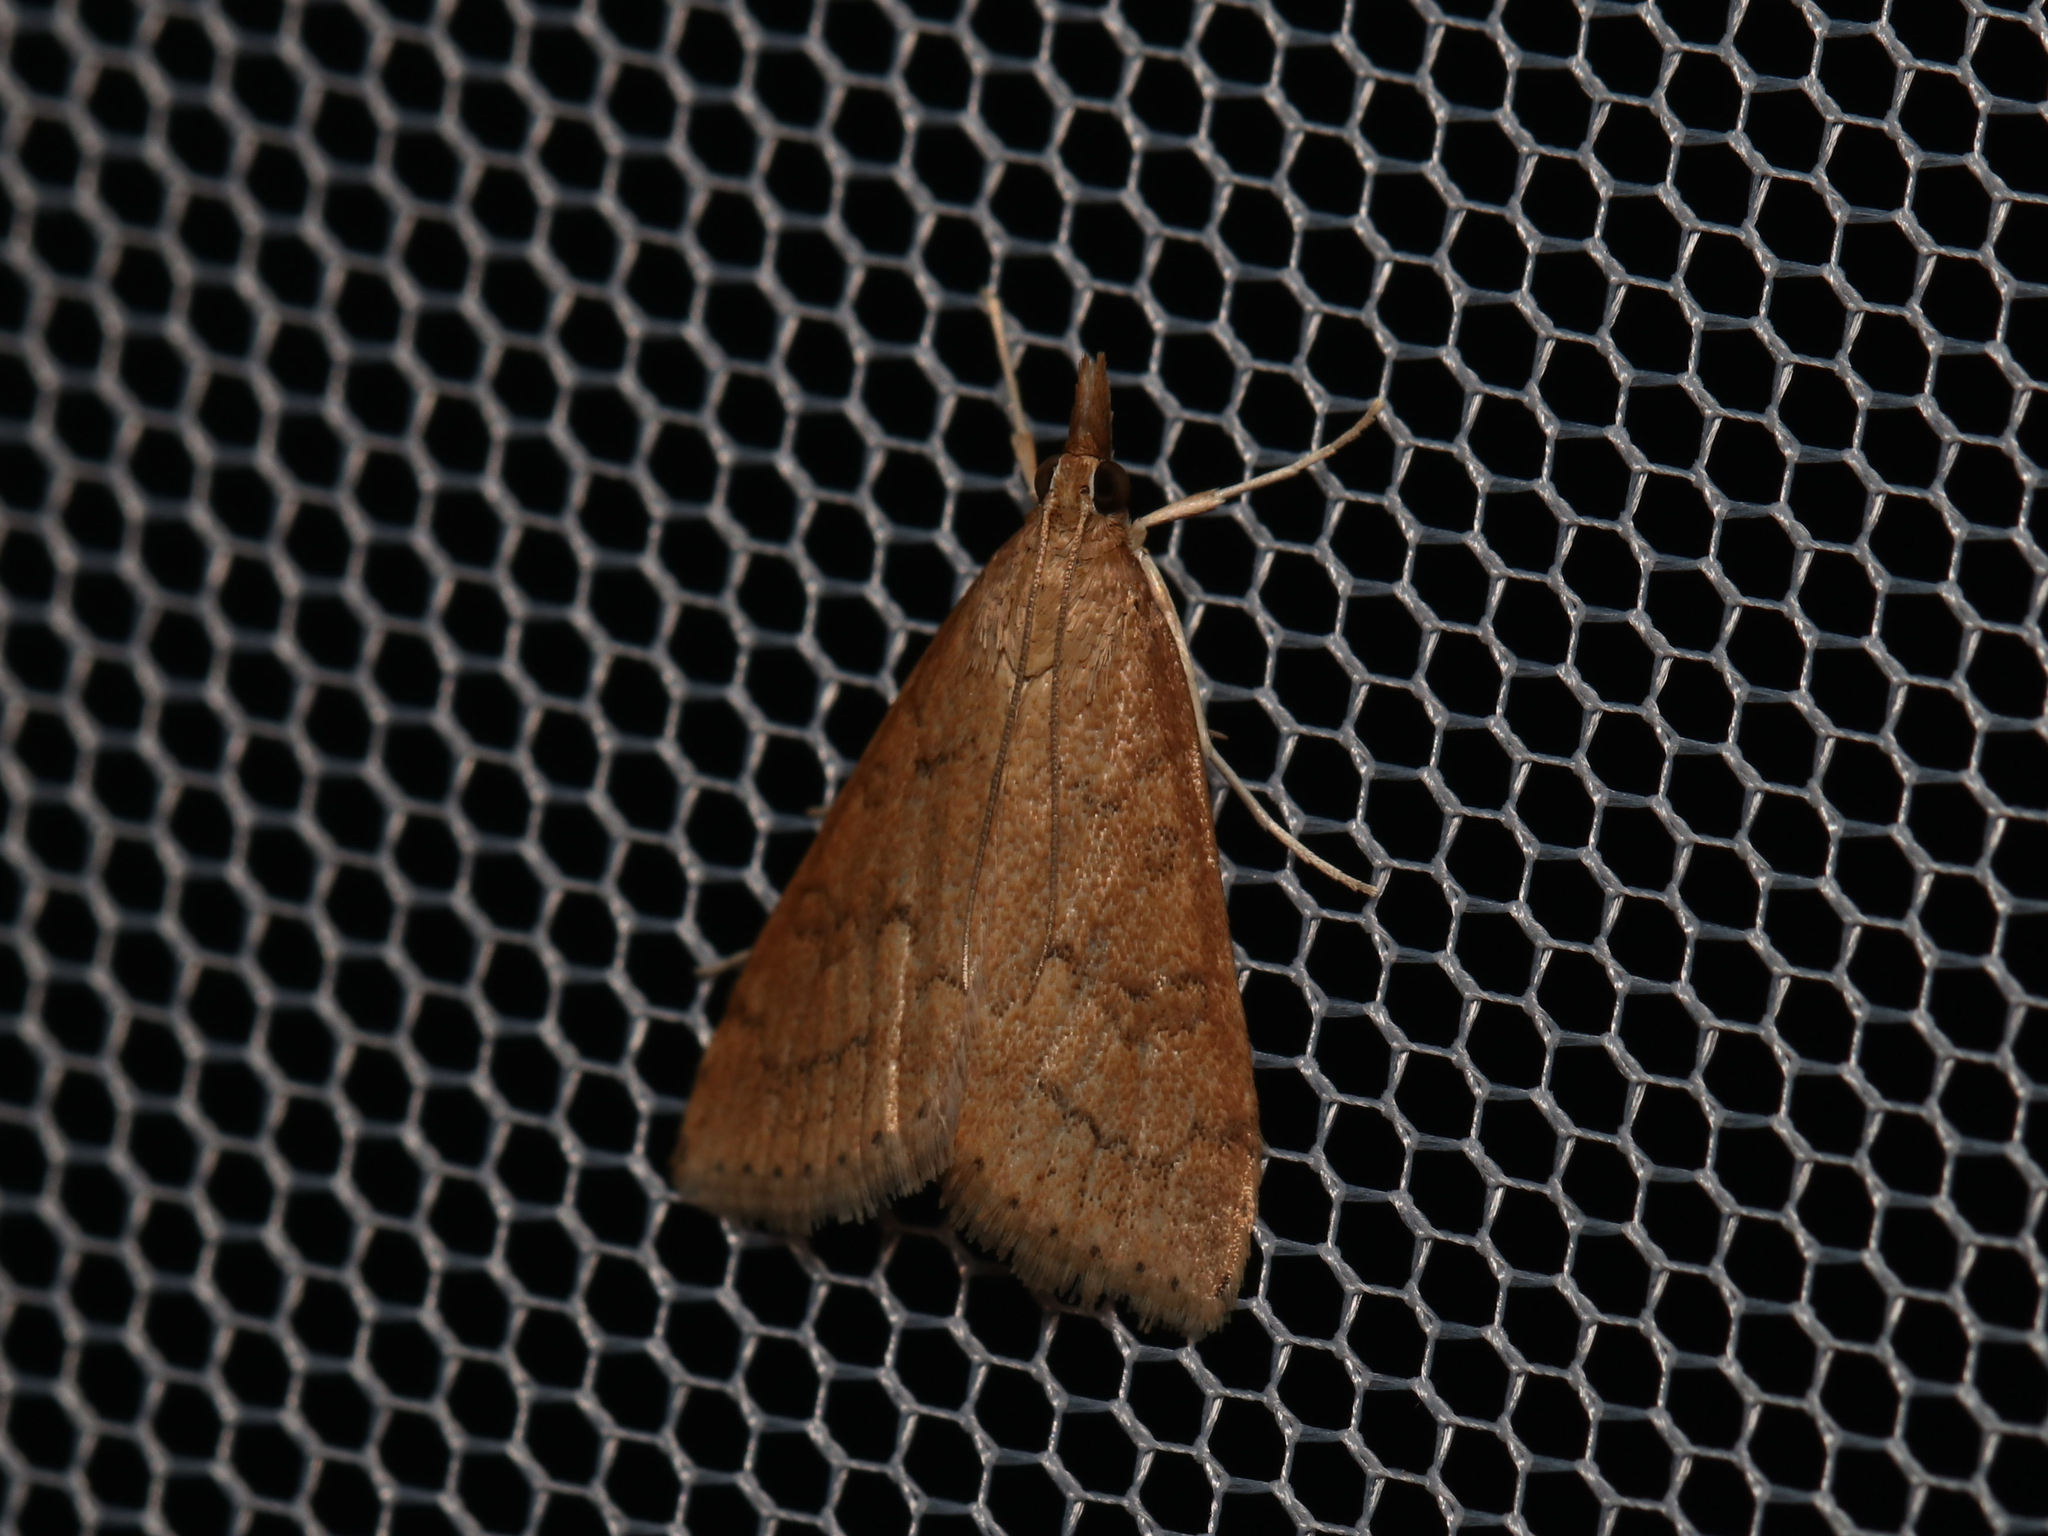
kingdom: Animalia
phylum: Arthropoda
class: Insecta
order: Lepidoptera
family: Crambidae
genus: Udea
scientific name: Udea rubigalis
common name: Celery leaftier moth
